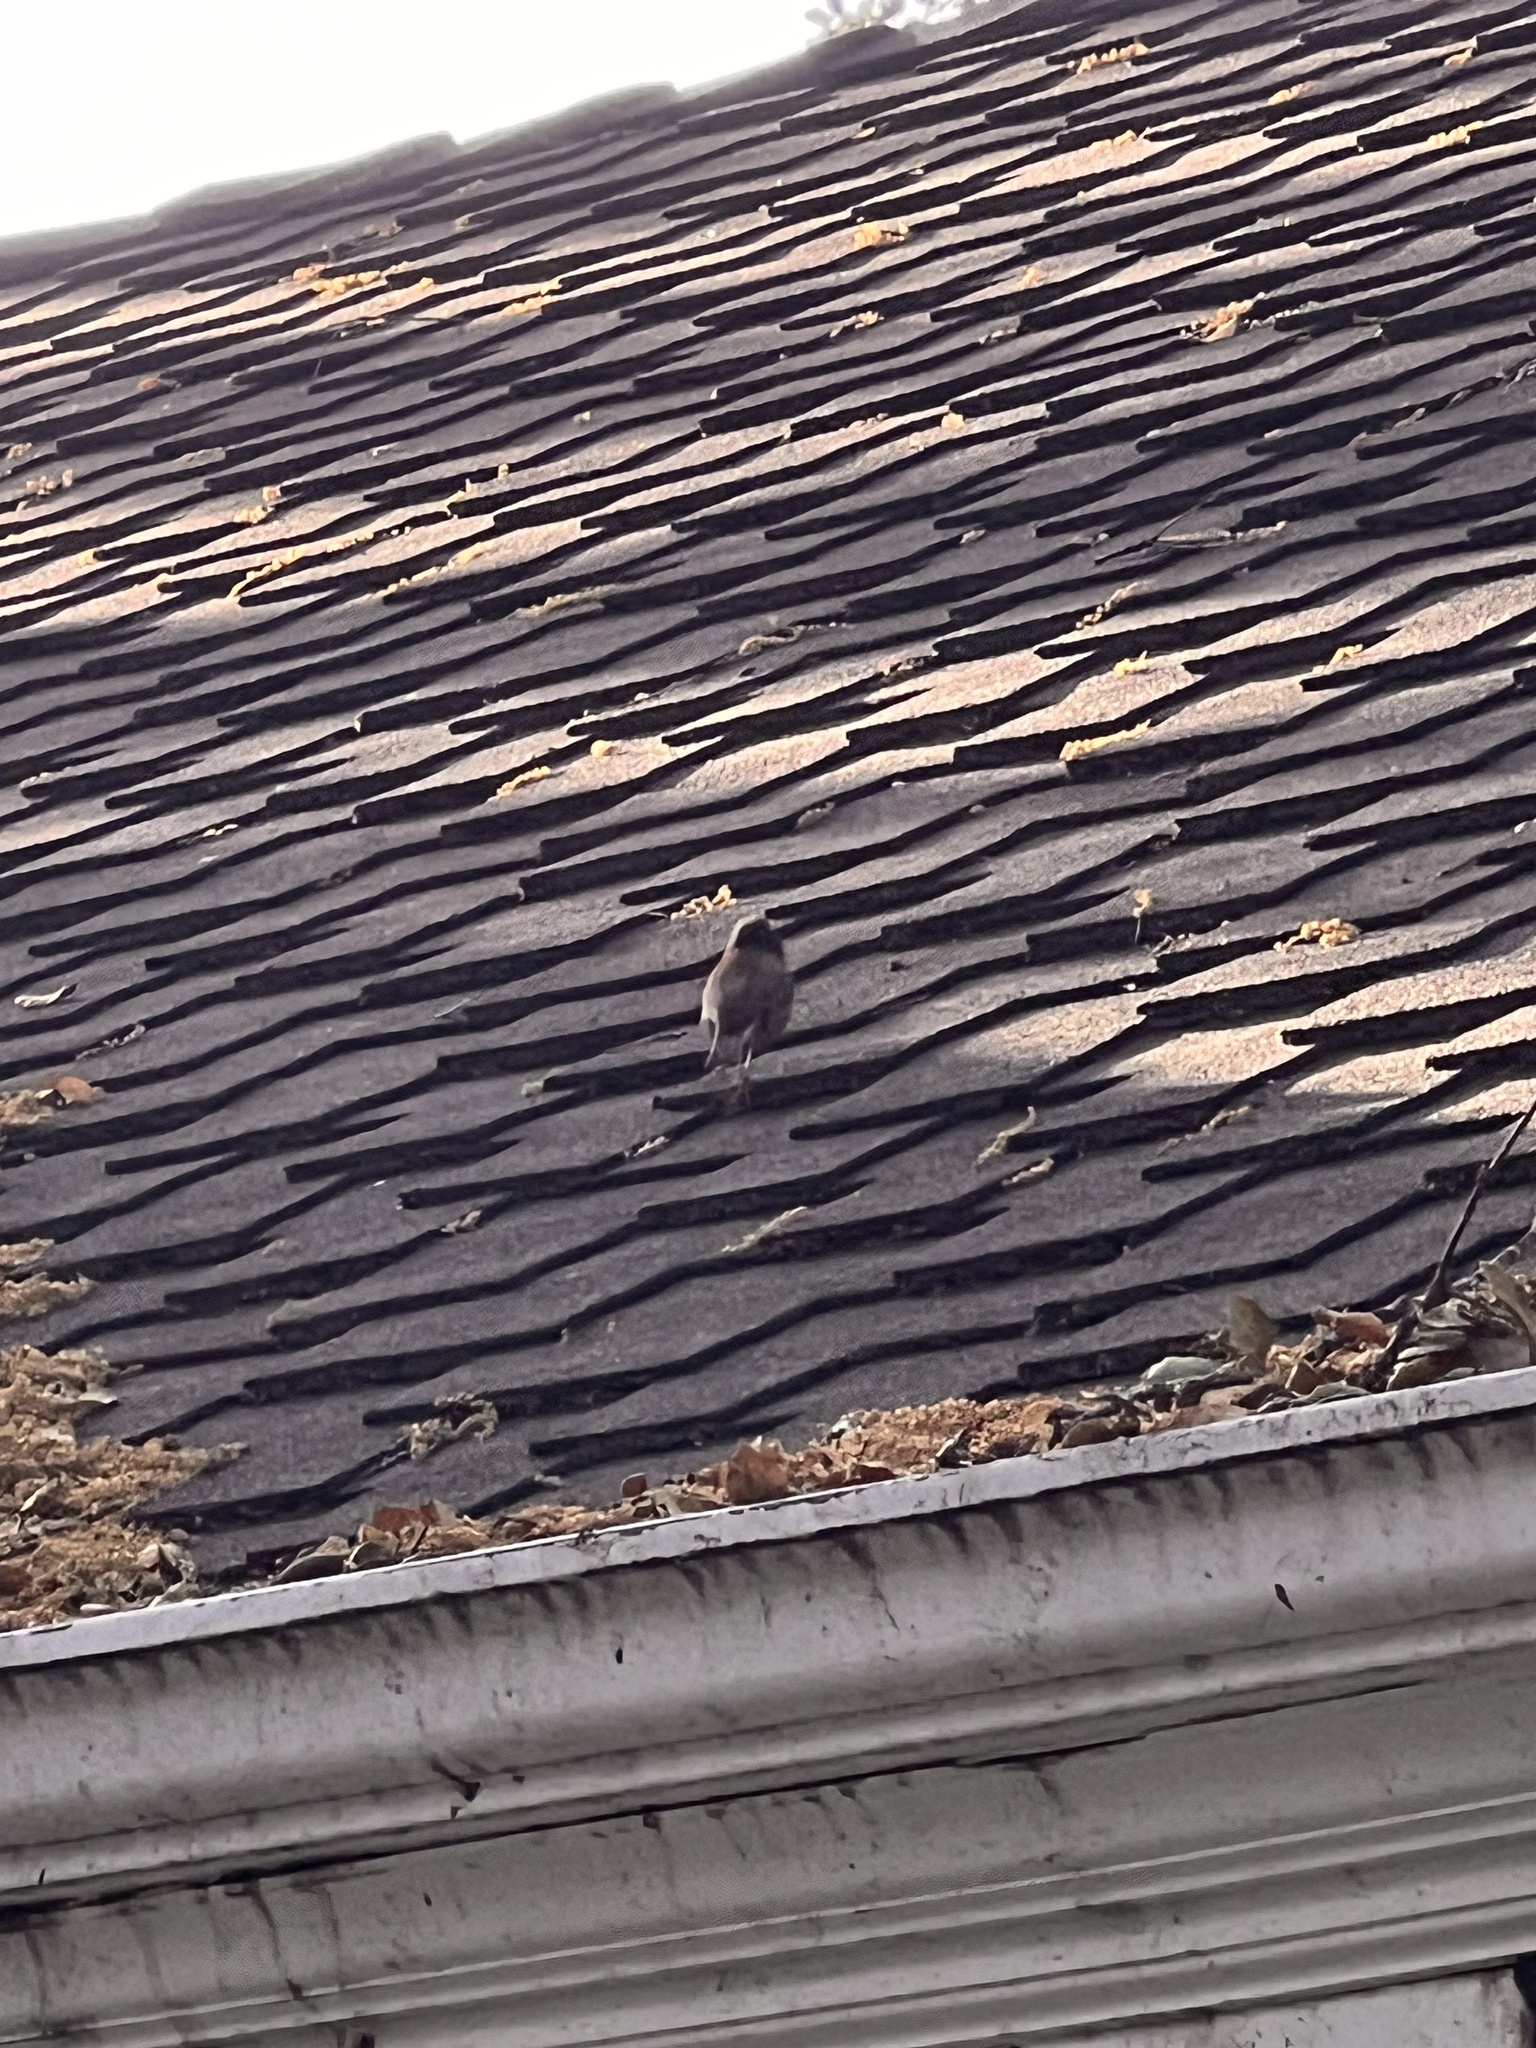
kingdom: Animalia
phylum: Chordata
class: Aves
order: Passeriformes
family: Passerellidae
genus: Junco
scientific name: Junco hyemalis
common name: Dark-eyed junco
